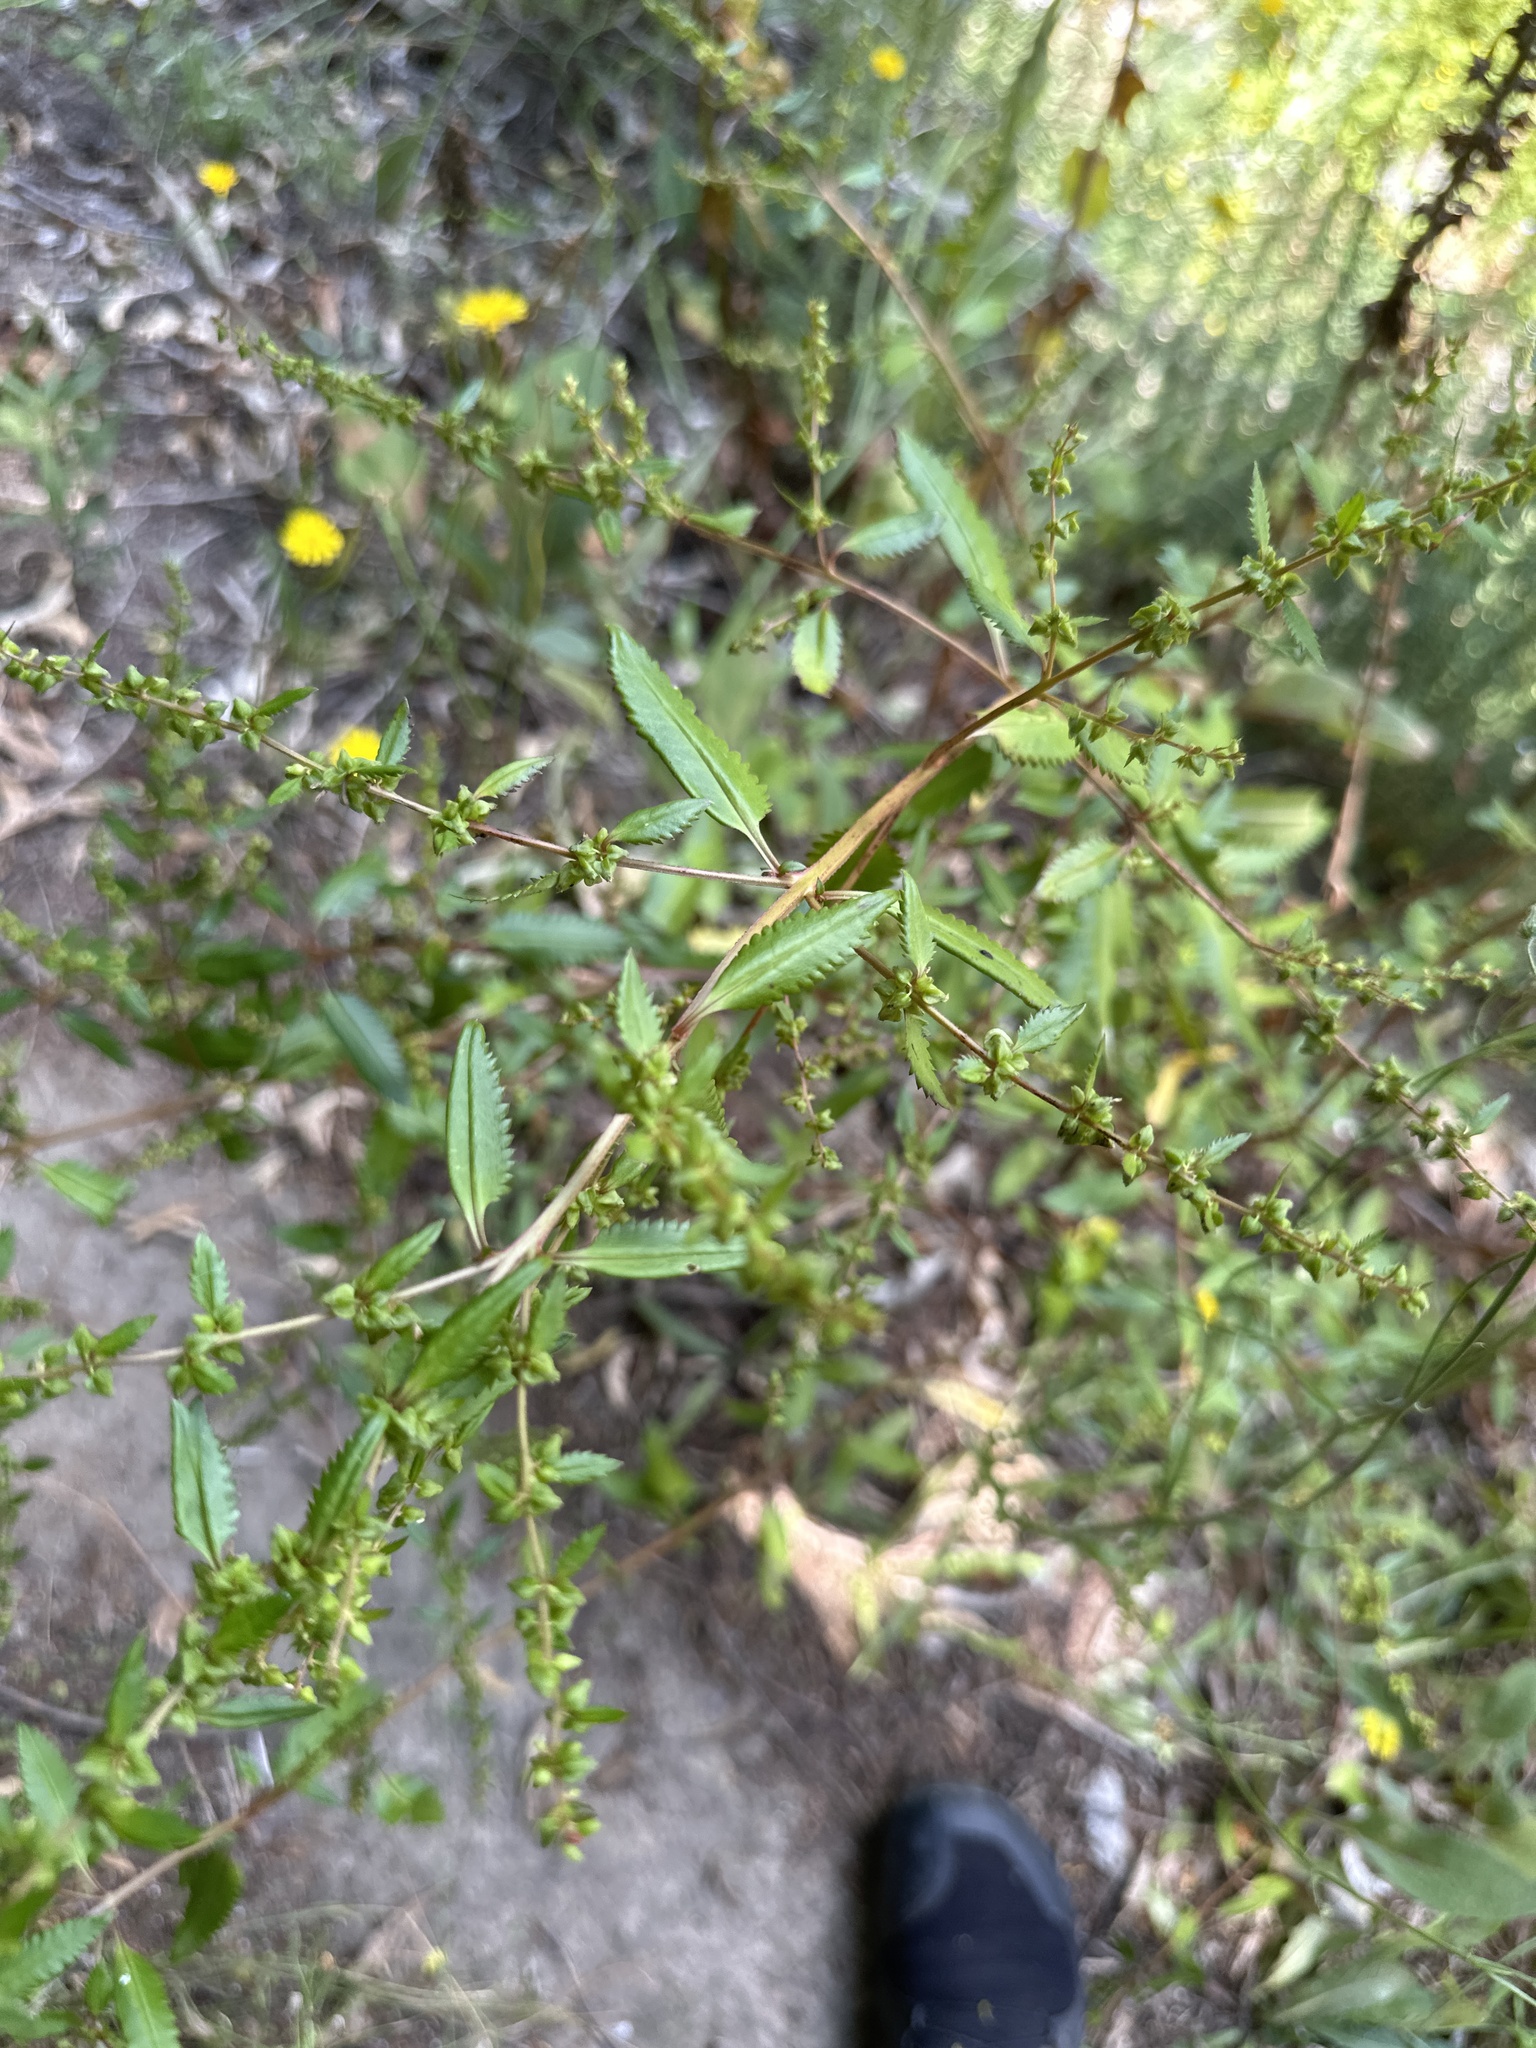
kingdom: Plantae
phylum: Tracheophyta
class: Magnoliopsida
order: Saxifragales
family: Haloragaceae
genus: Haloragis
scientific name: Haloragis erecta
